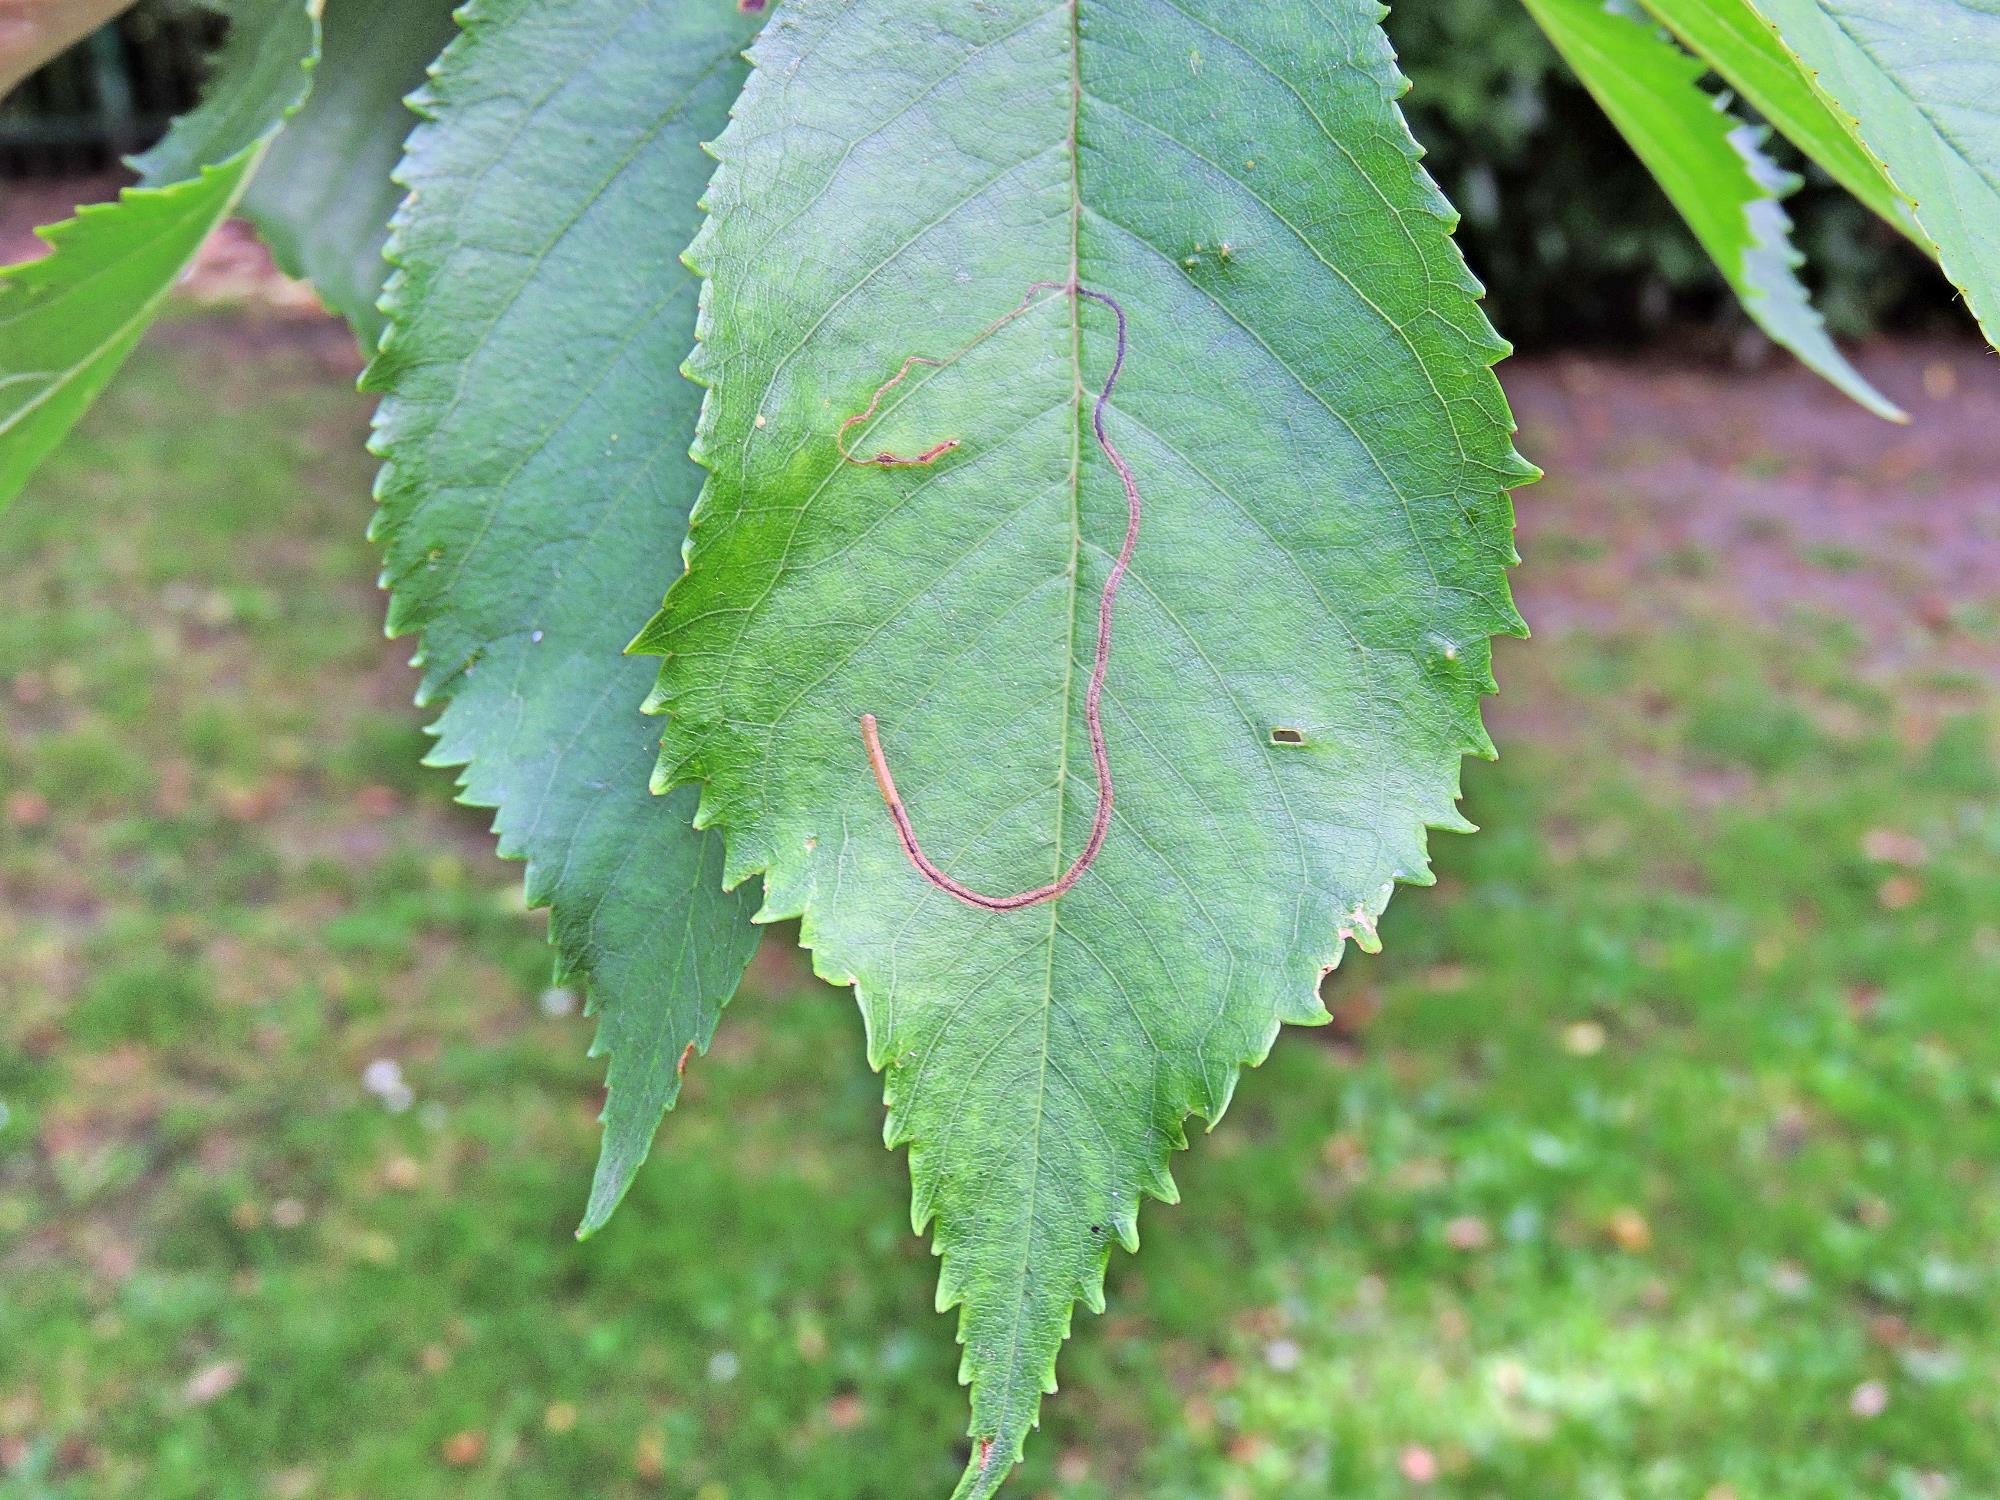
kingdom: Animalia
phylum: Arthropoda
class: Insecta
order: Lepidoptera
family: Lyonetiidae
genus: Lyonetia
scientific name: Lyonetia clerkella
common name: Apple leaf miner
